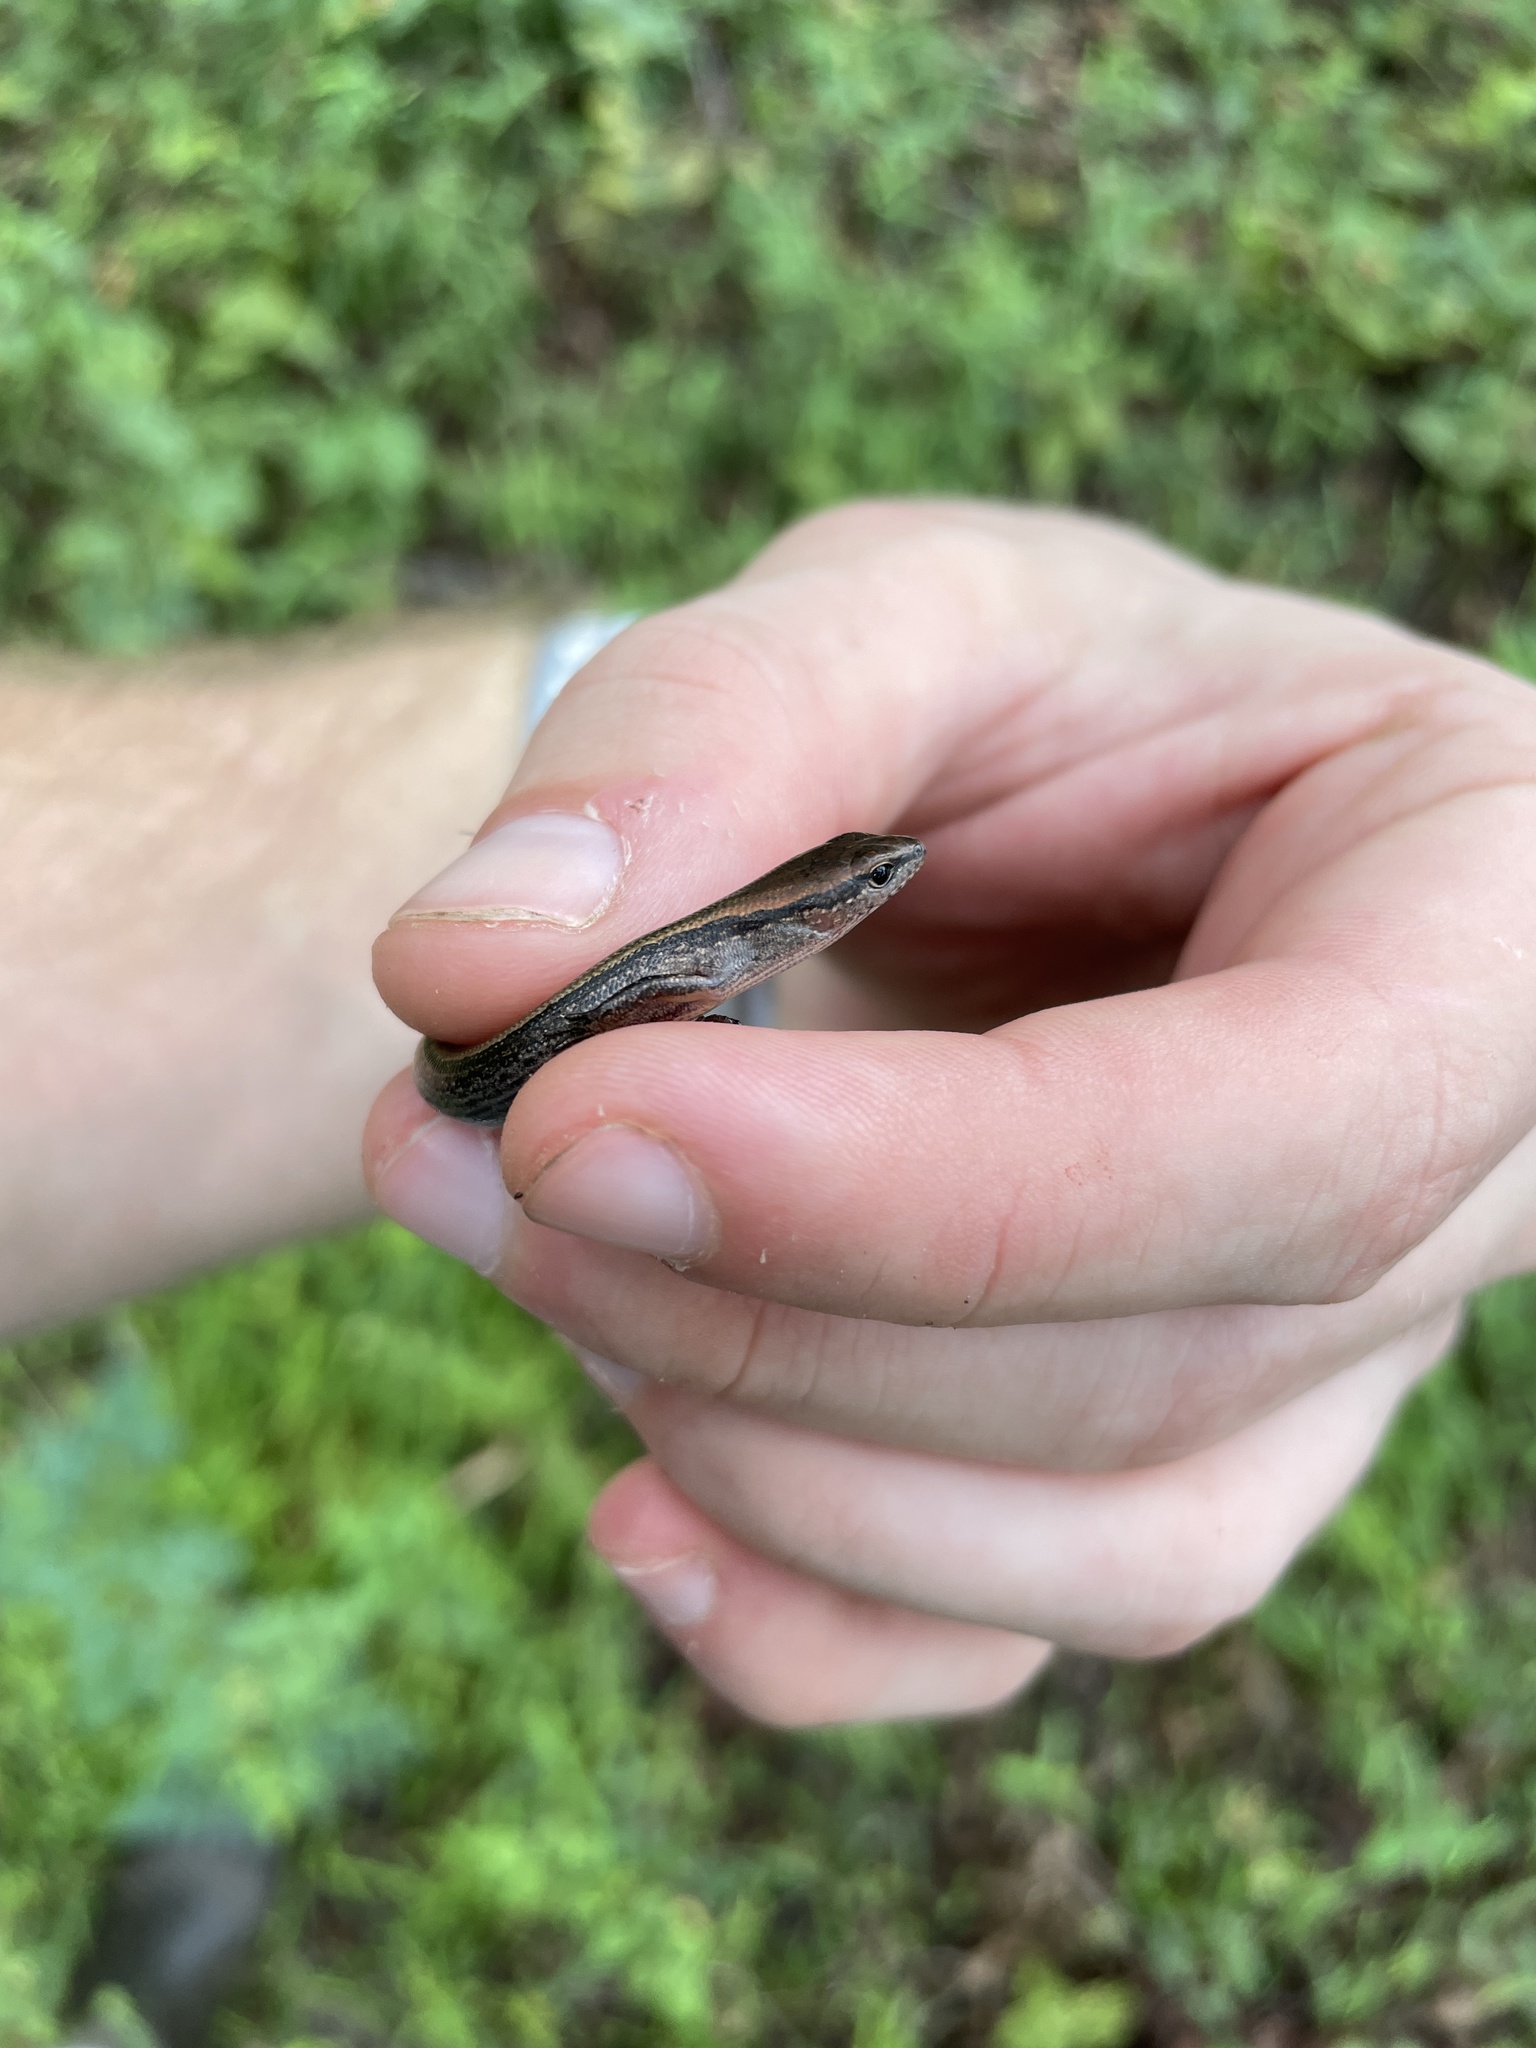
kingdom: Animalia
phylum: Chordata
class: Squamata
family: Scincidae
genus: Scincella
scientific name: Scincella lateralis
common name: Ground skink
